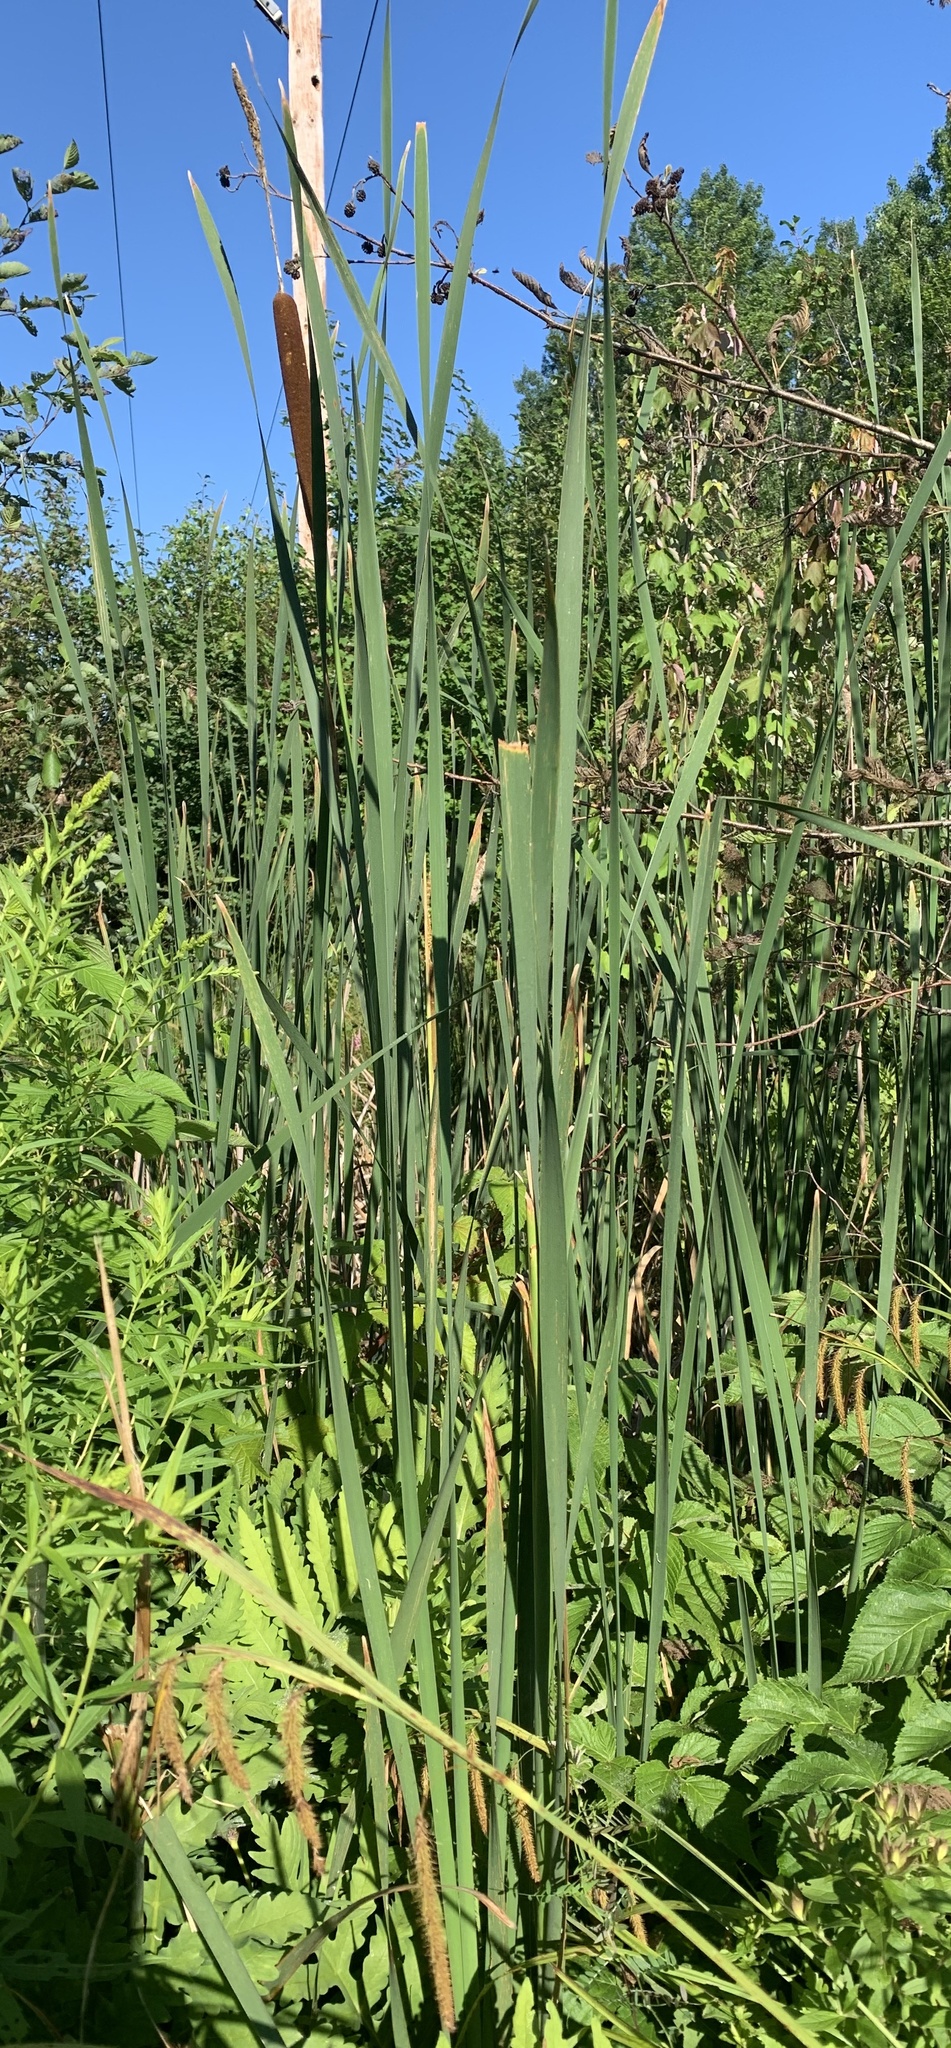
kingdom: Plantae
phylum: Tracheophyta
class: Liliopsida
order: Poales
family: Typhaceae
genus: Typha
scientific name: Typha latifolia
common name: Broadleaf cattail
